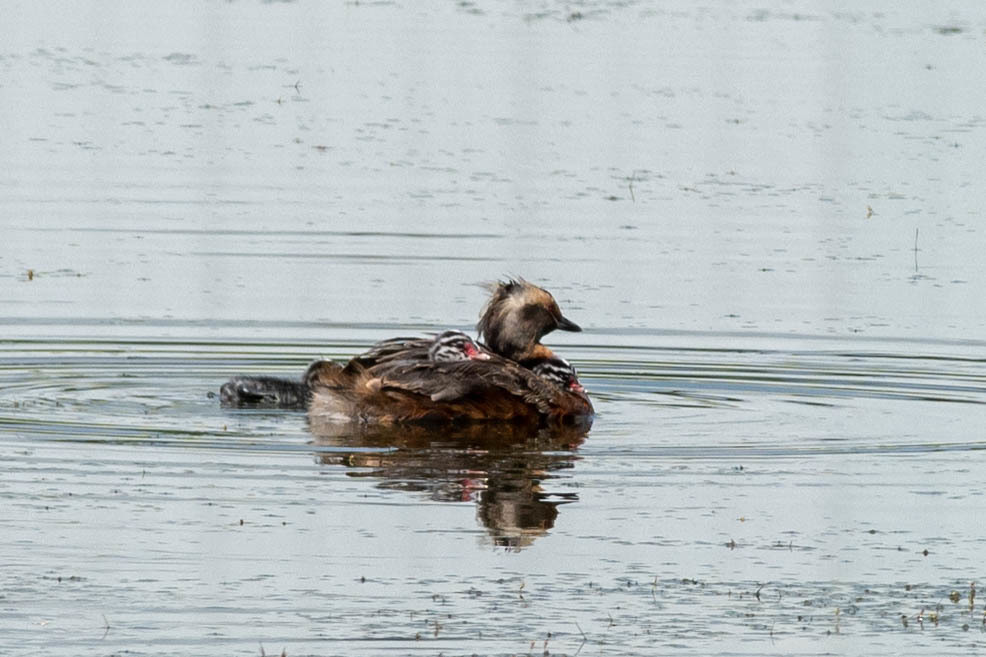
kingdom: Animalia
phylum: Chordata
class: Aves
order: Podicipediformes
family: Podicipedidae
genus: Podiceps
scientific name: Podiceps auritus
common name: Horned grebe
